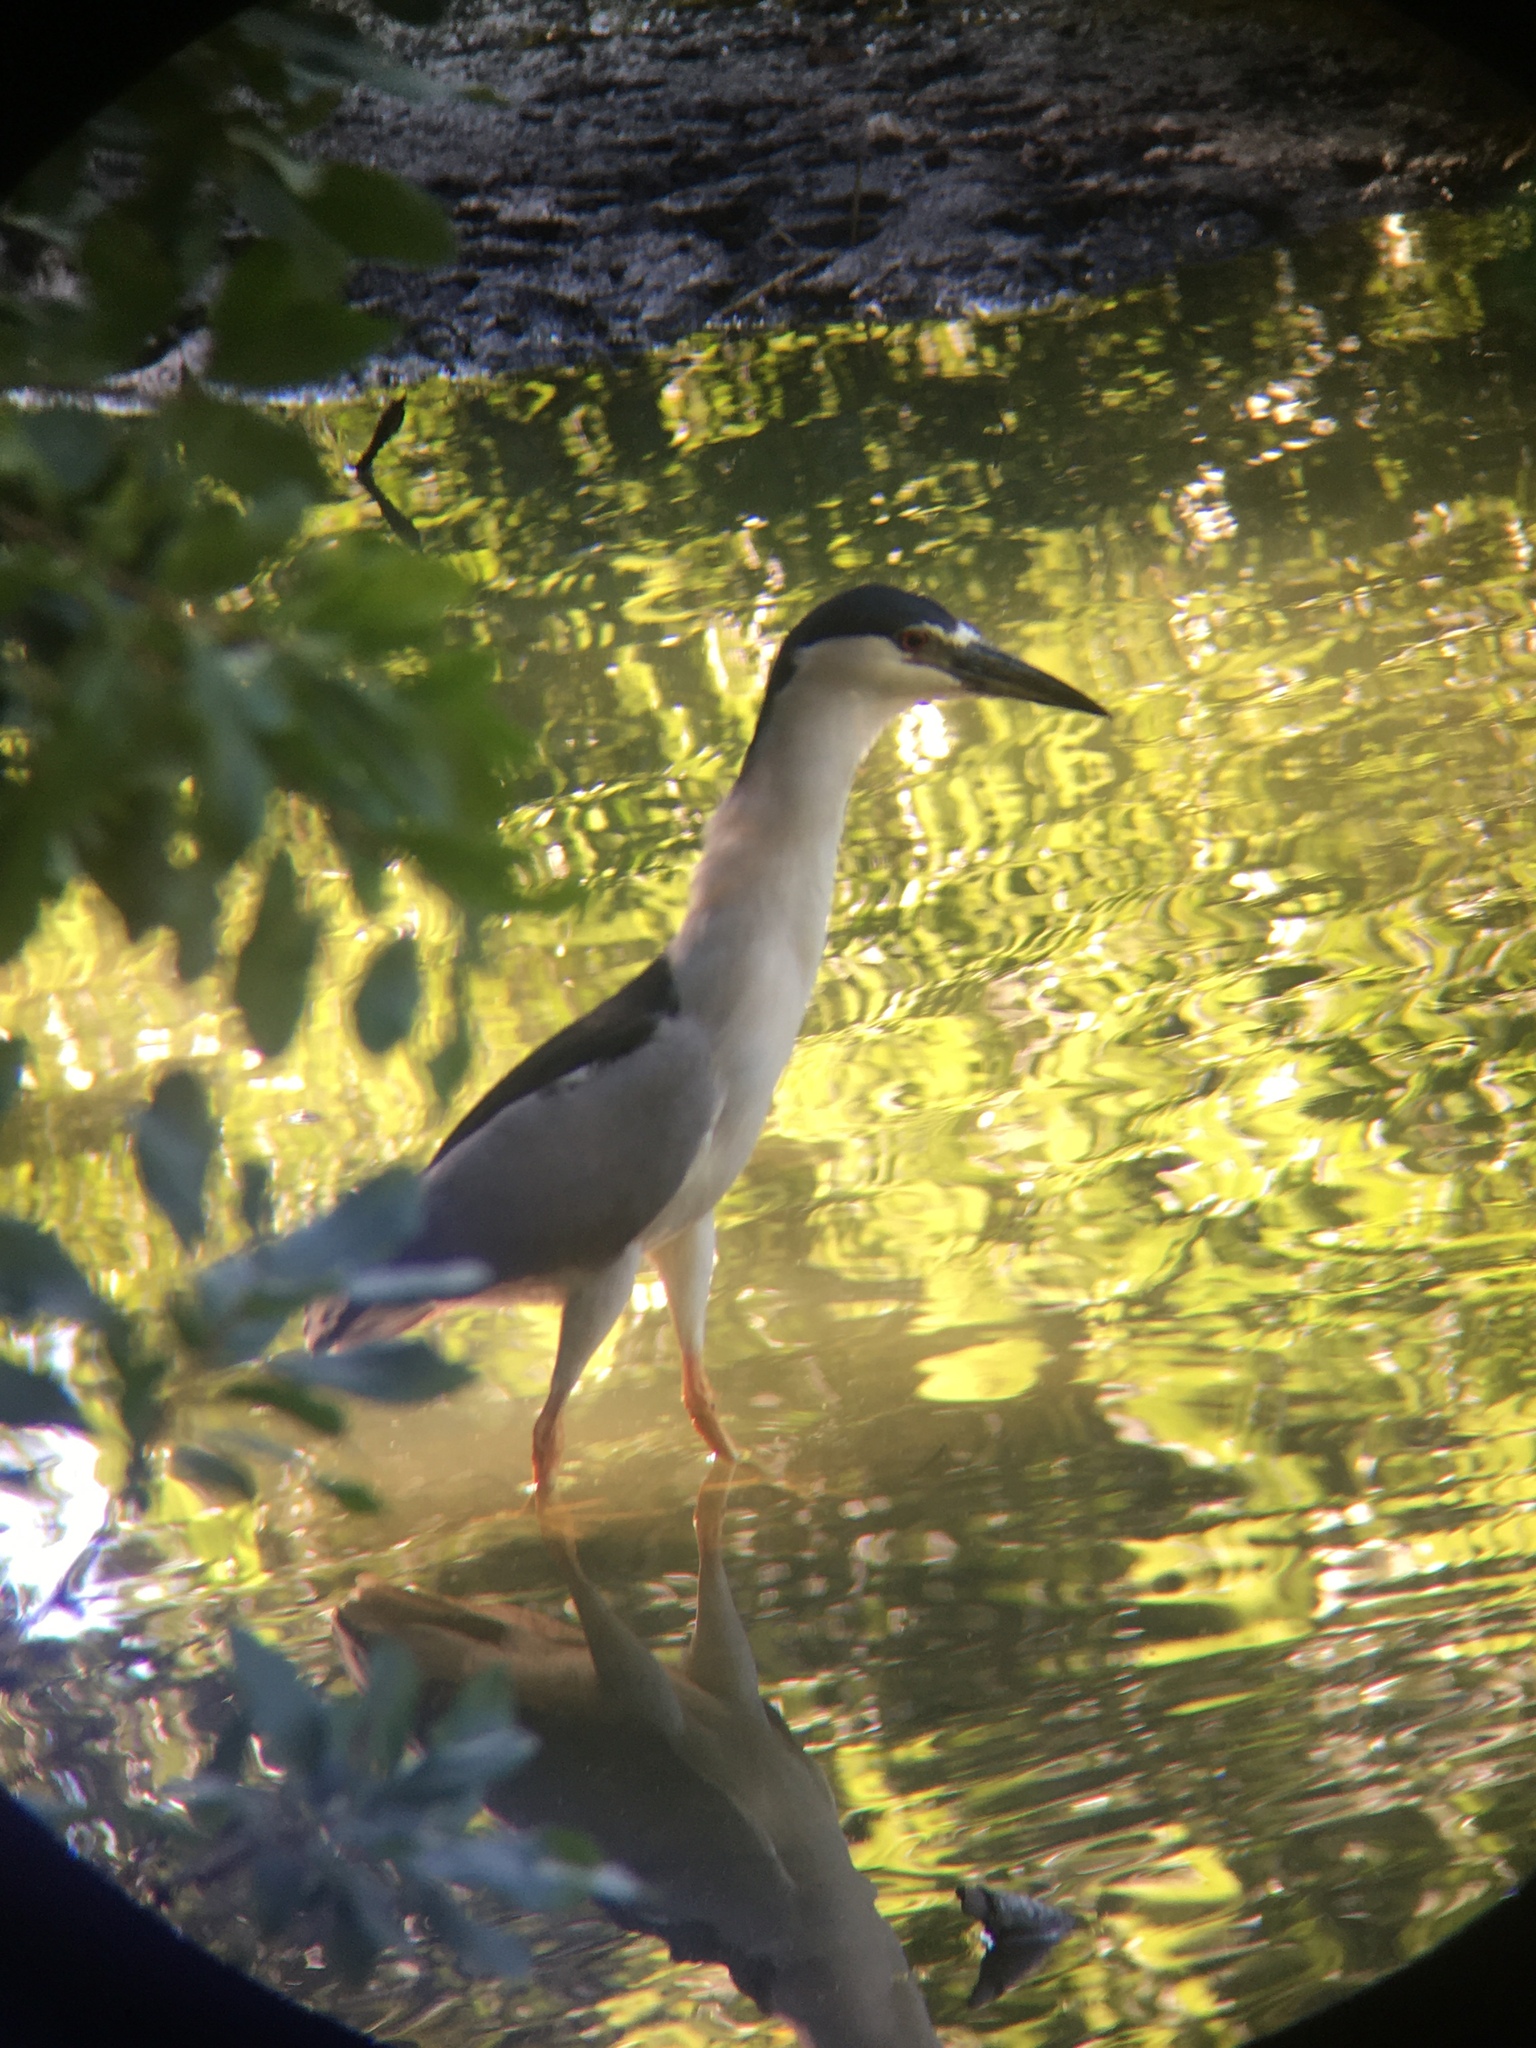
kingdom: Animalia
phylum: Chordata
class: Aves
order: Pelecaniformes
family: Ardeidae
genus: Nycticorax
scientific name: Nycticorax nycticorax
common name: Black-crowned night heron
